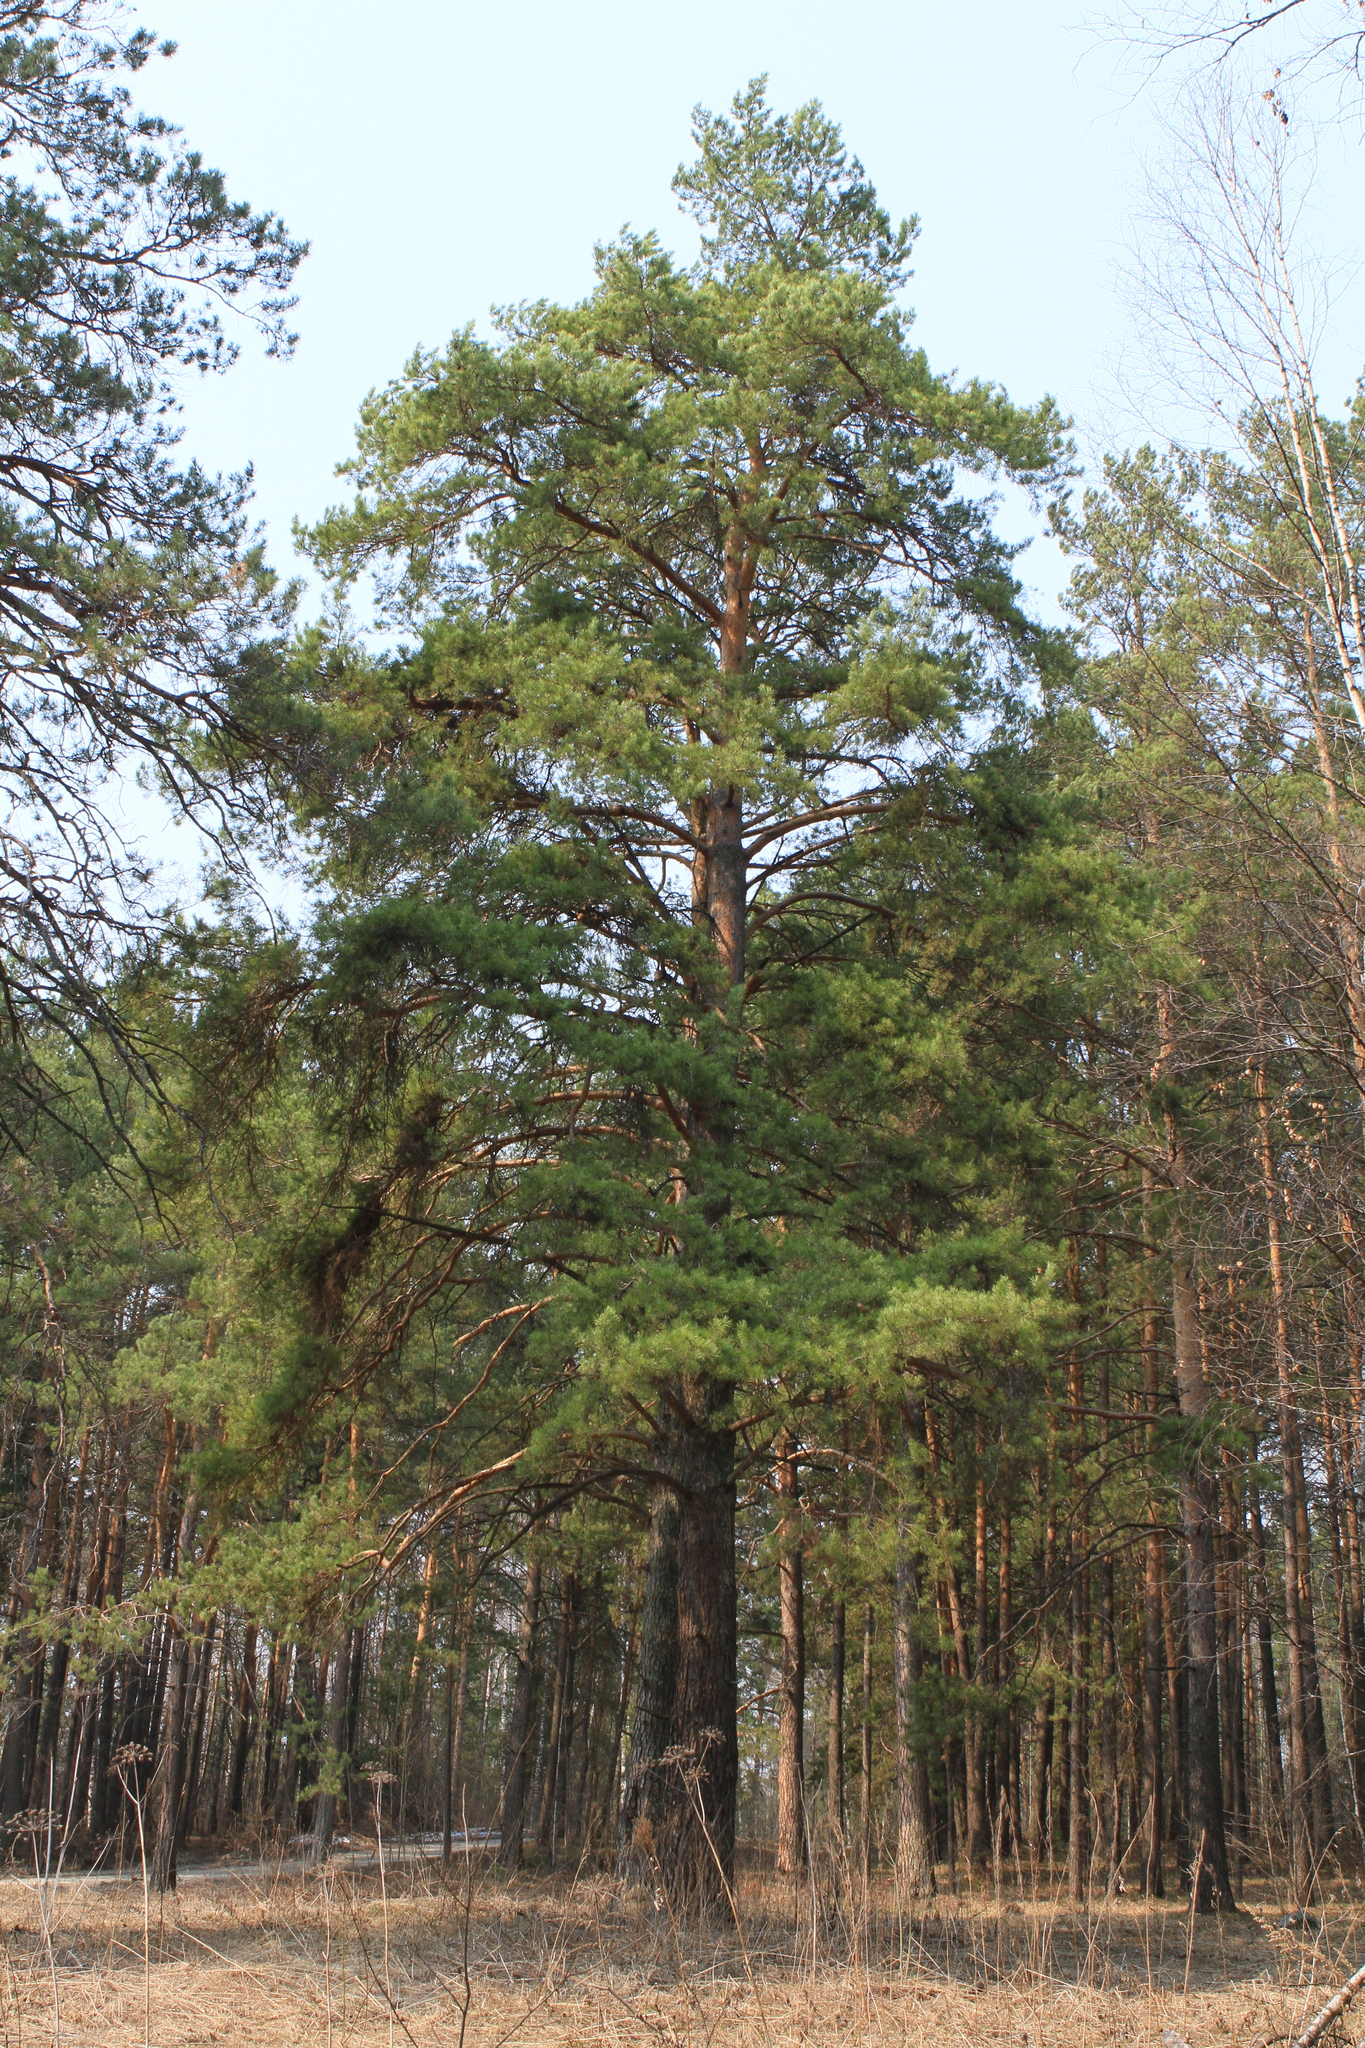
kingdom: Plantae
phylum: Tracheophyta
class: Pinopsida
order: Pinales
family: Pinaceae
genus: Pinus
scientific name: Pinus sylvestris
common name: Scots pine
